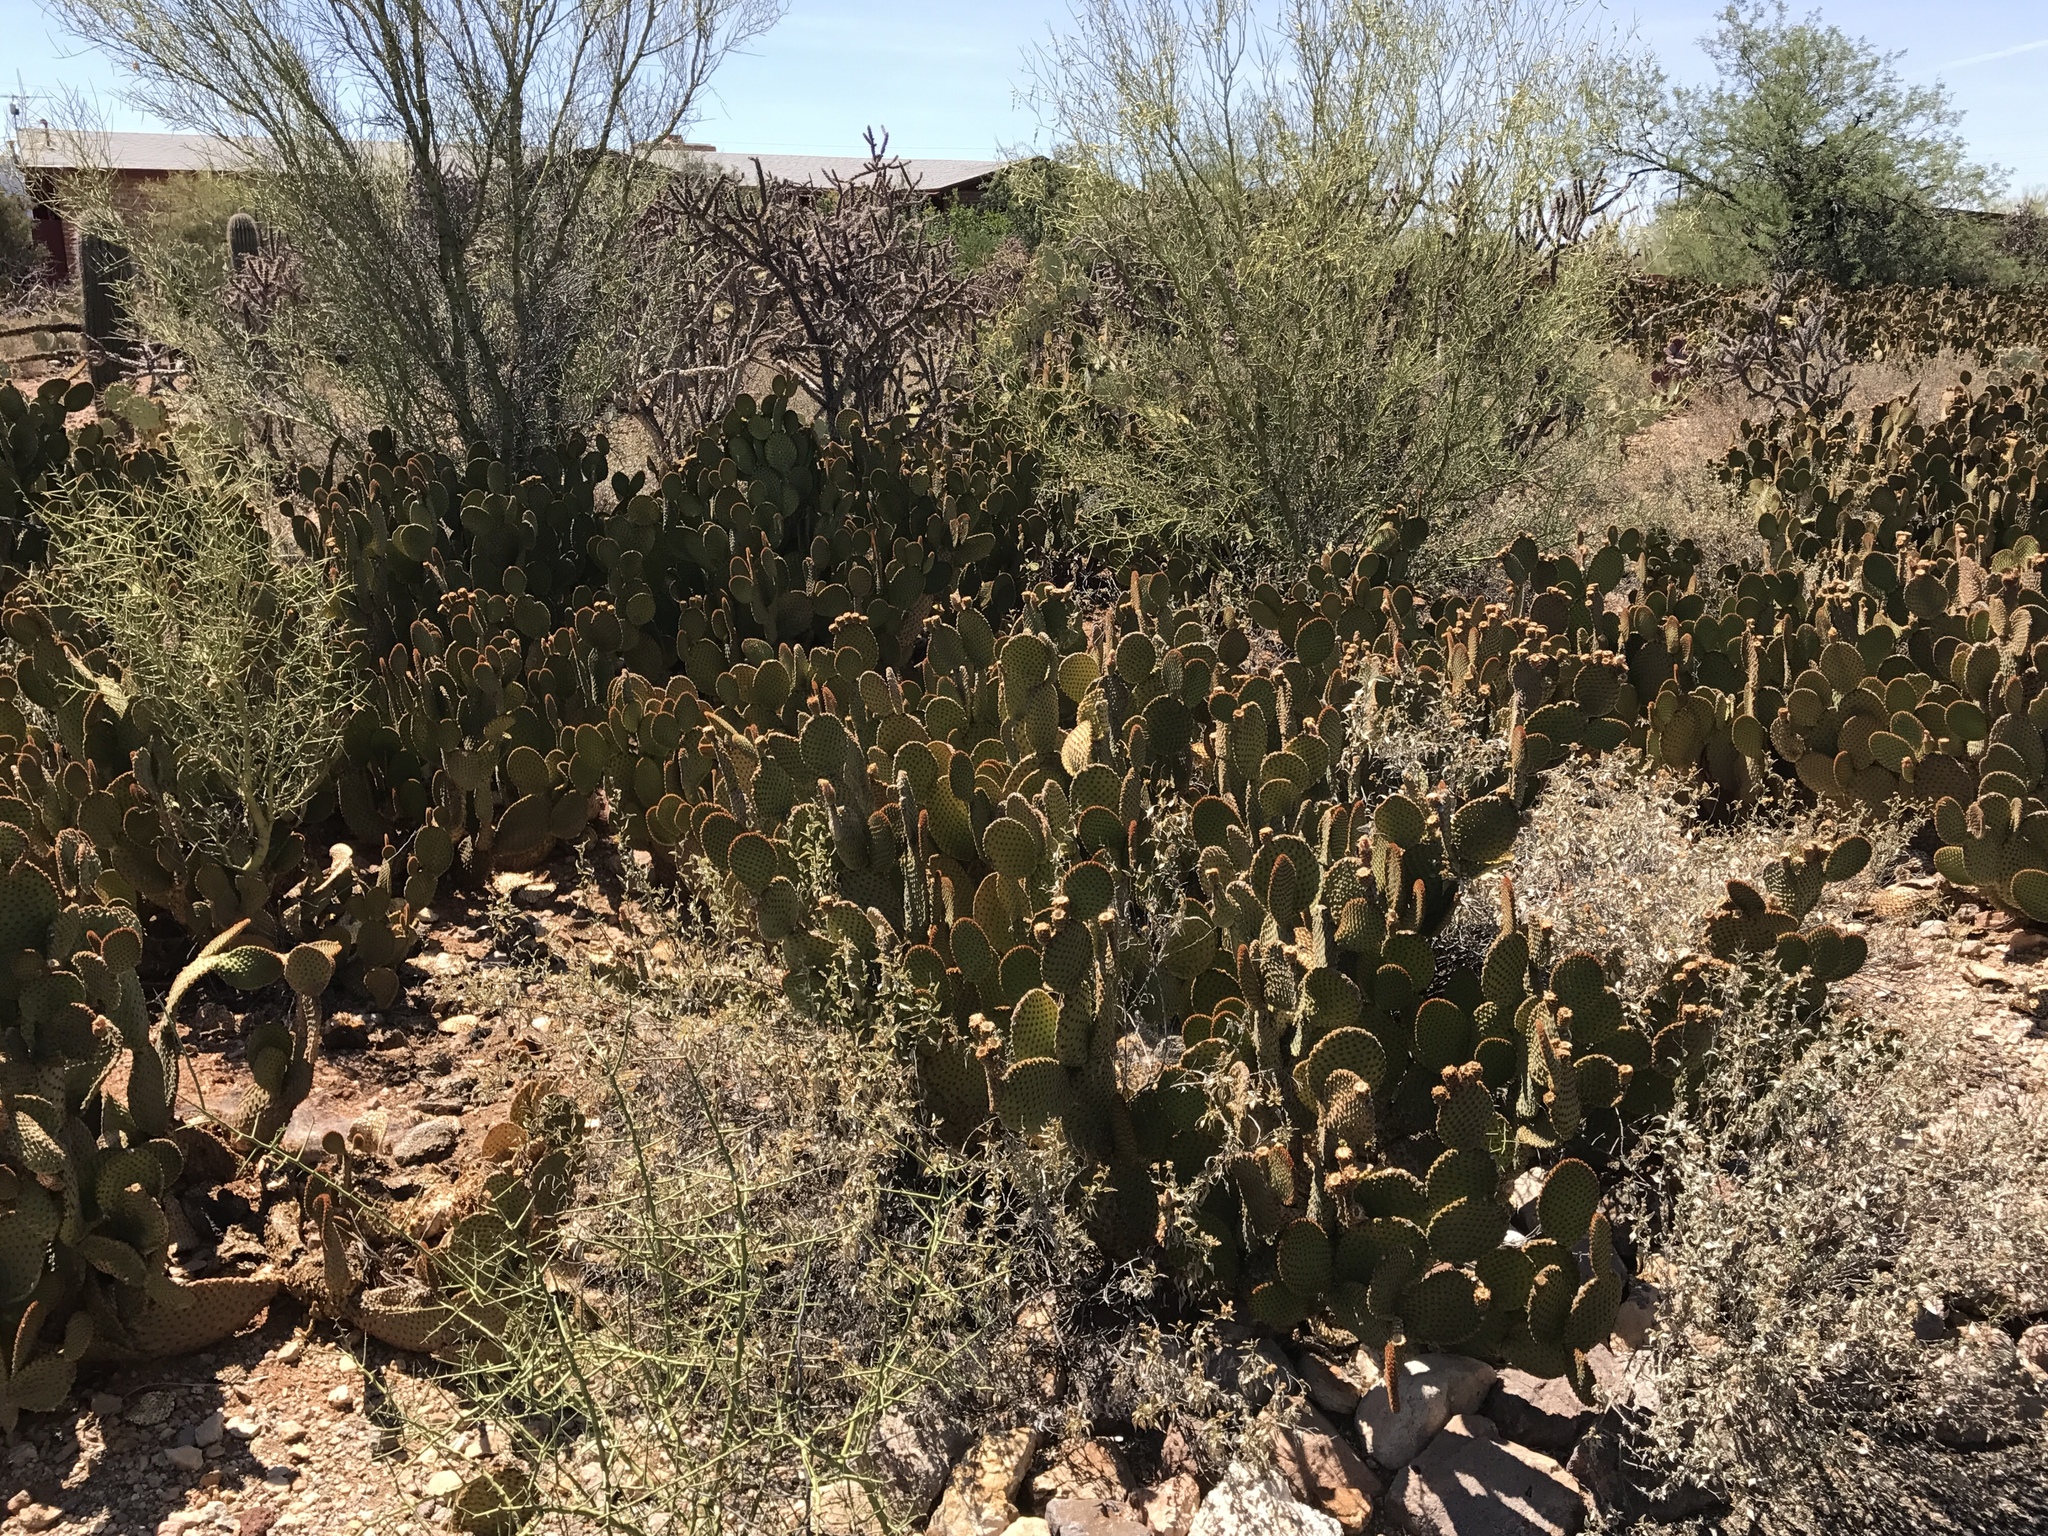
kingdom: Plantae
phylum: Tracheophyta
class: Magnoliopsida
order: Caryophyllales
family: Cactaceae
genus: Opuntia
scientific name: Opuntia microdasys
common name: Angel's-wings
